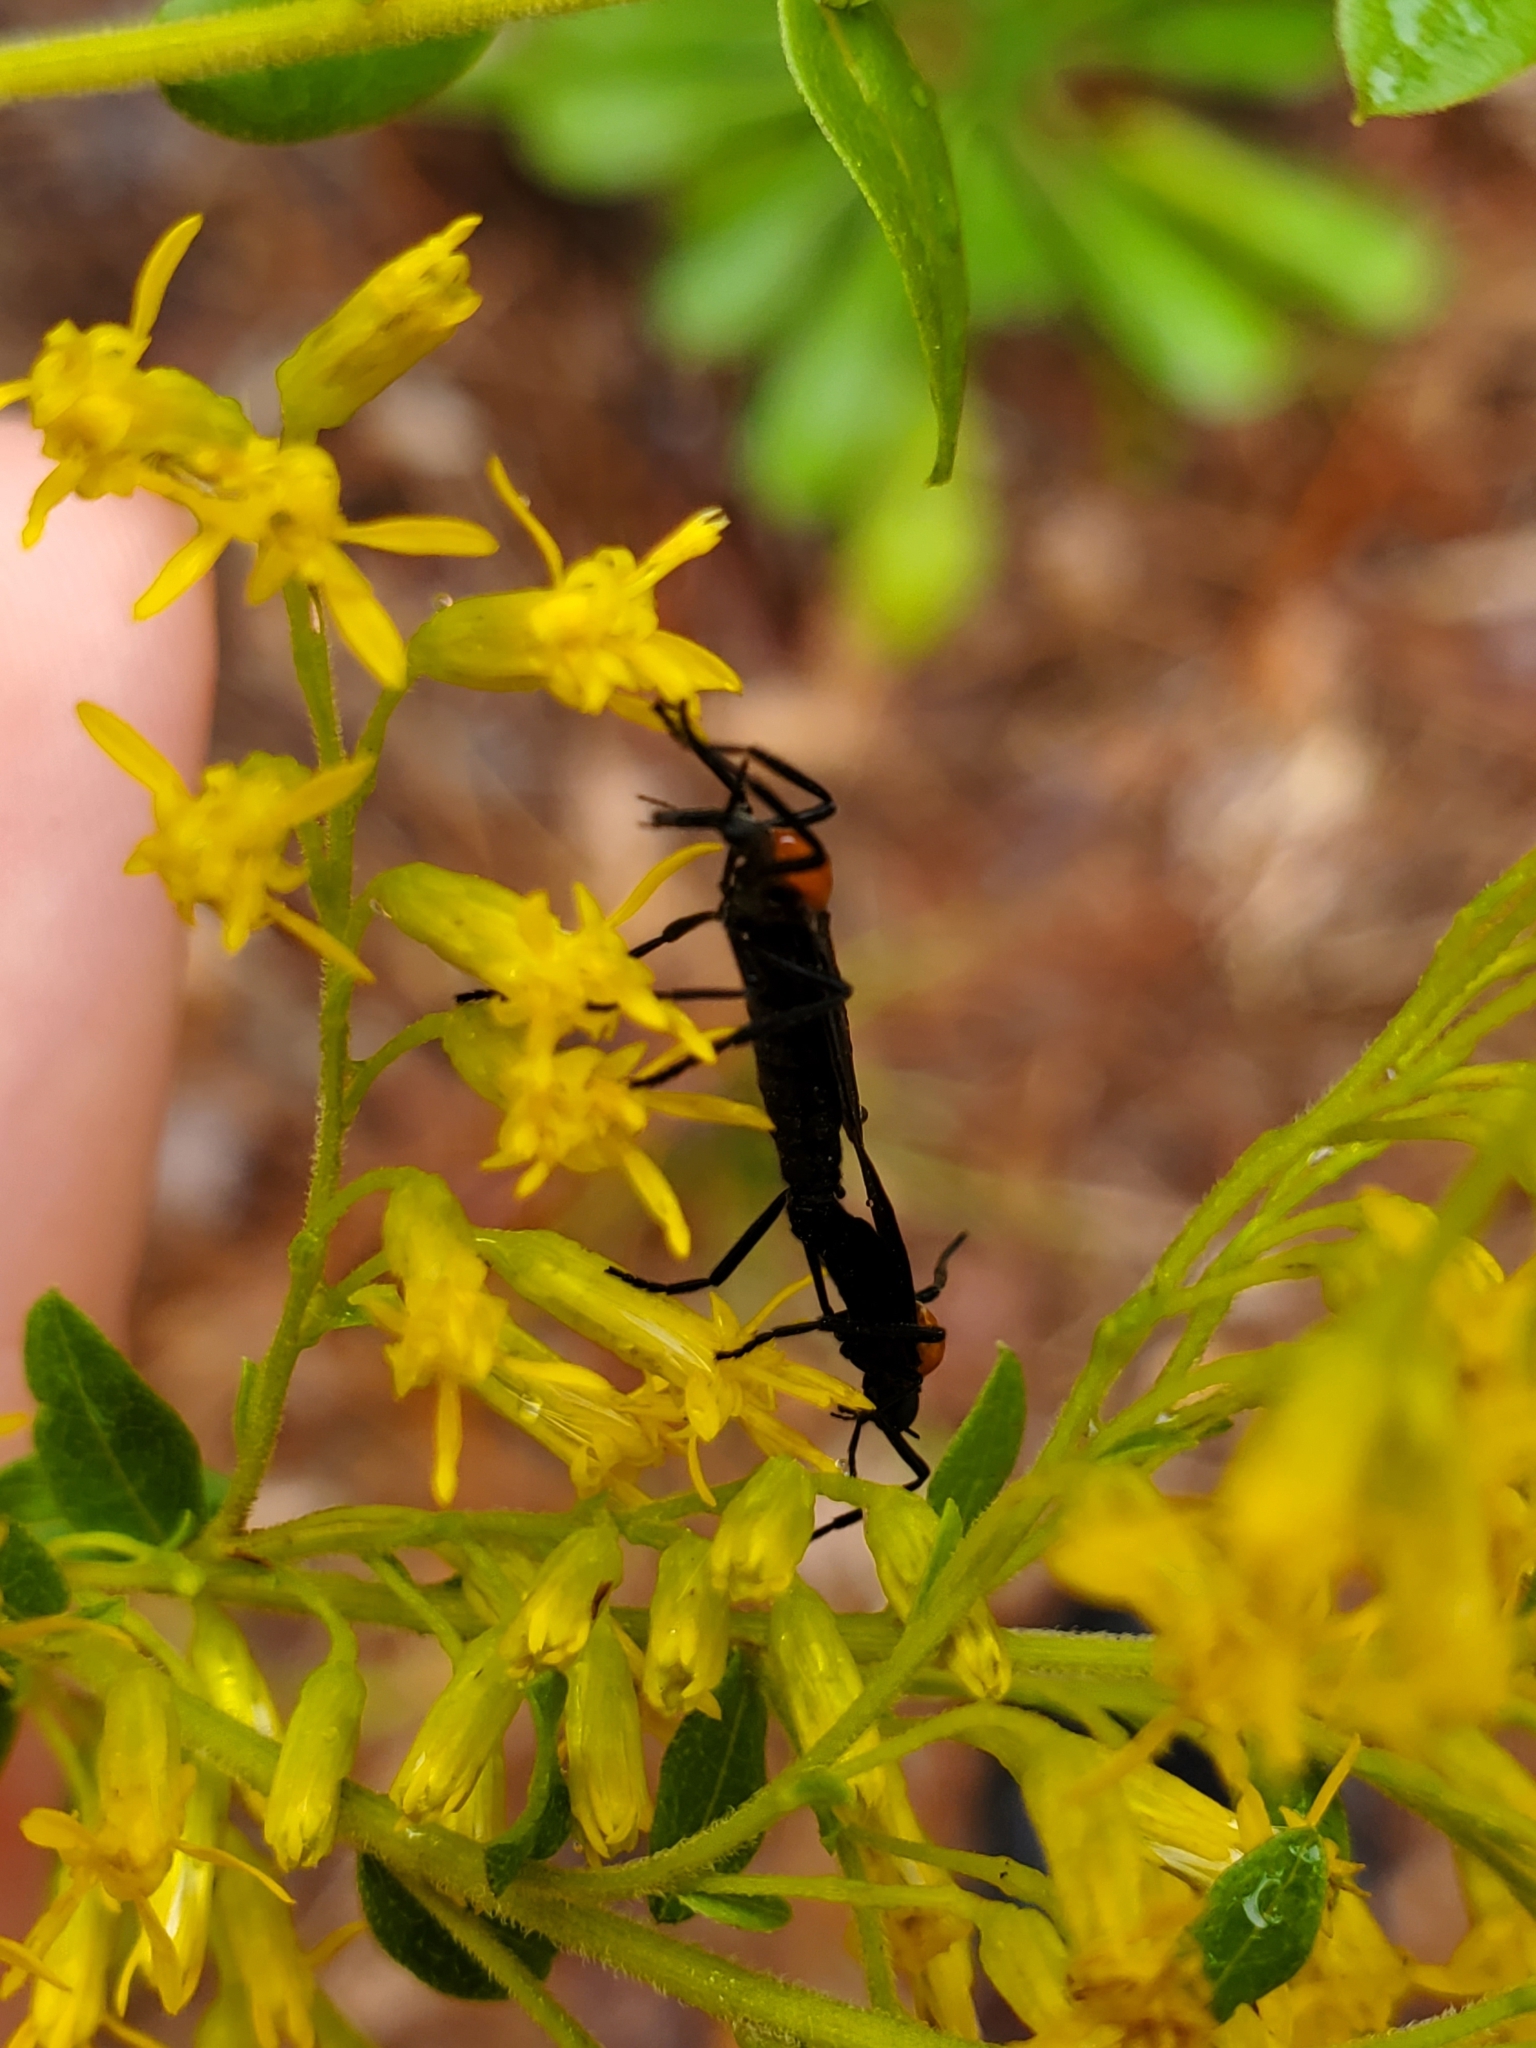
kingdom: Animalia
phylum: Arthropoda
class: Insecta
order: Diptera
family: Bibionidae
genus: Plecia
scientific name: Plecia nearctica
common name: March fly
